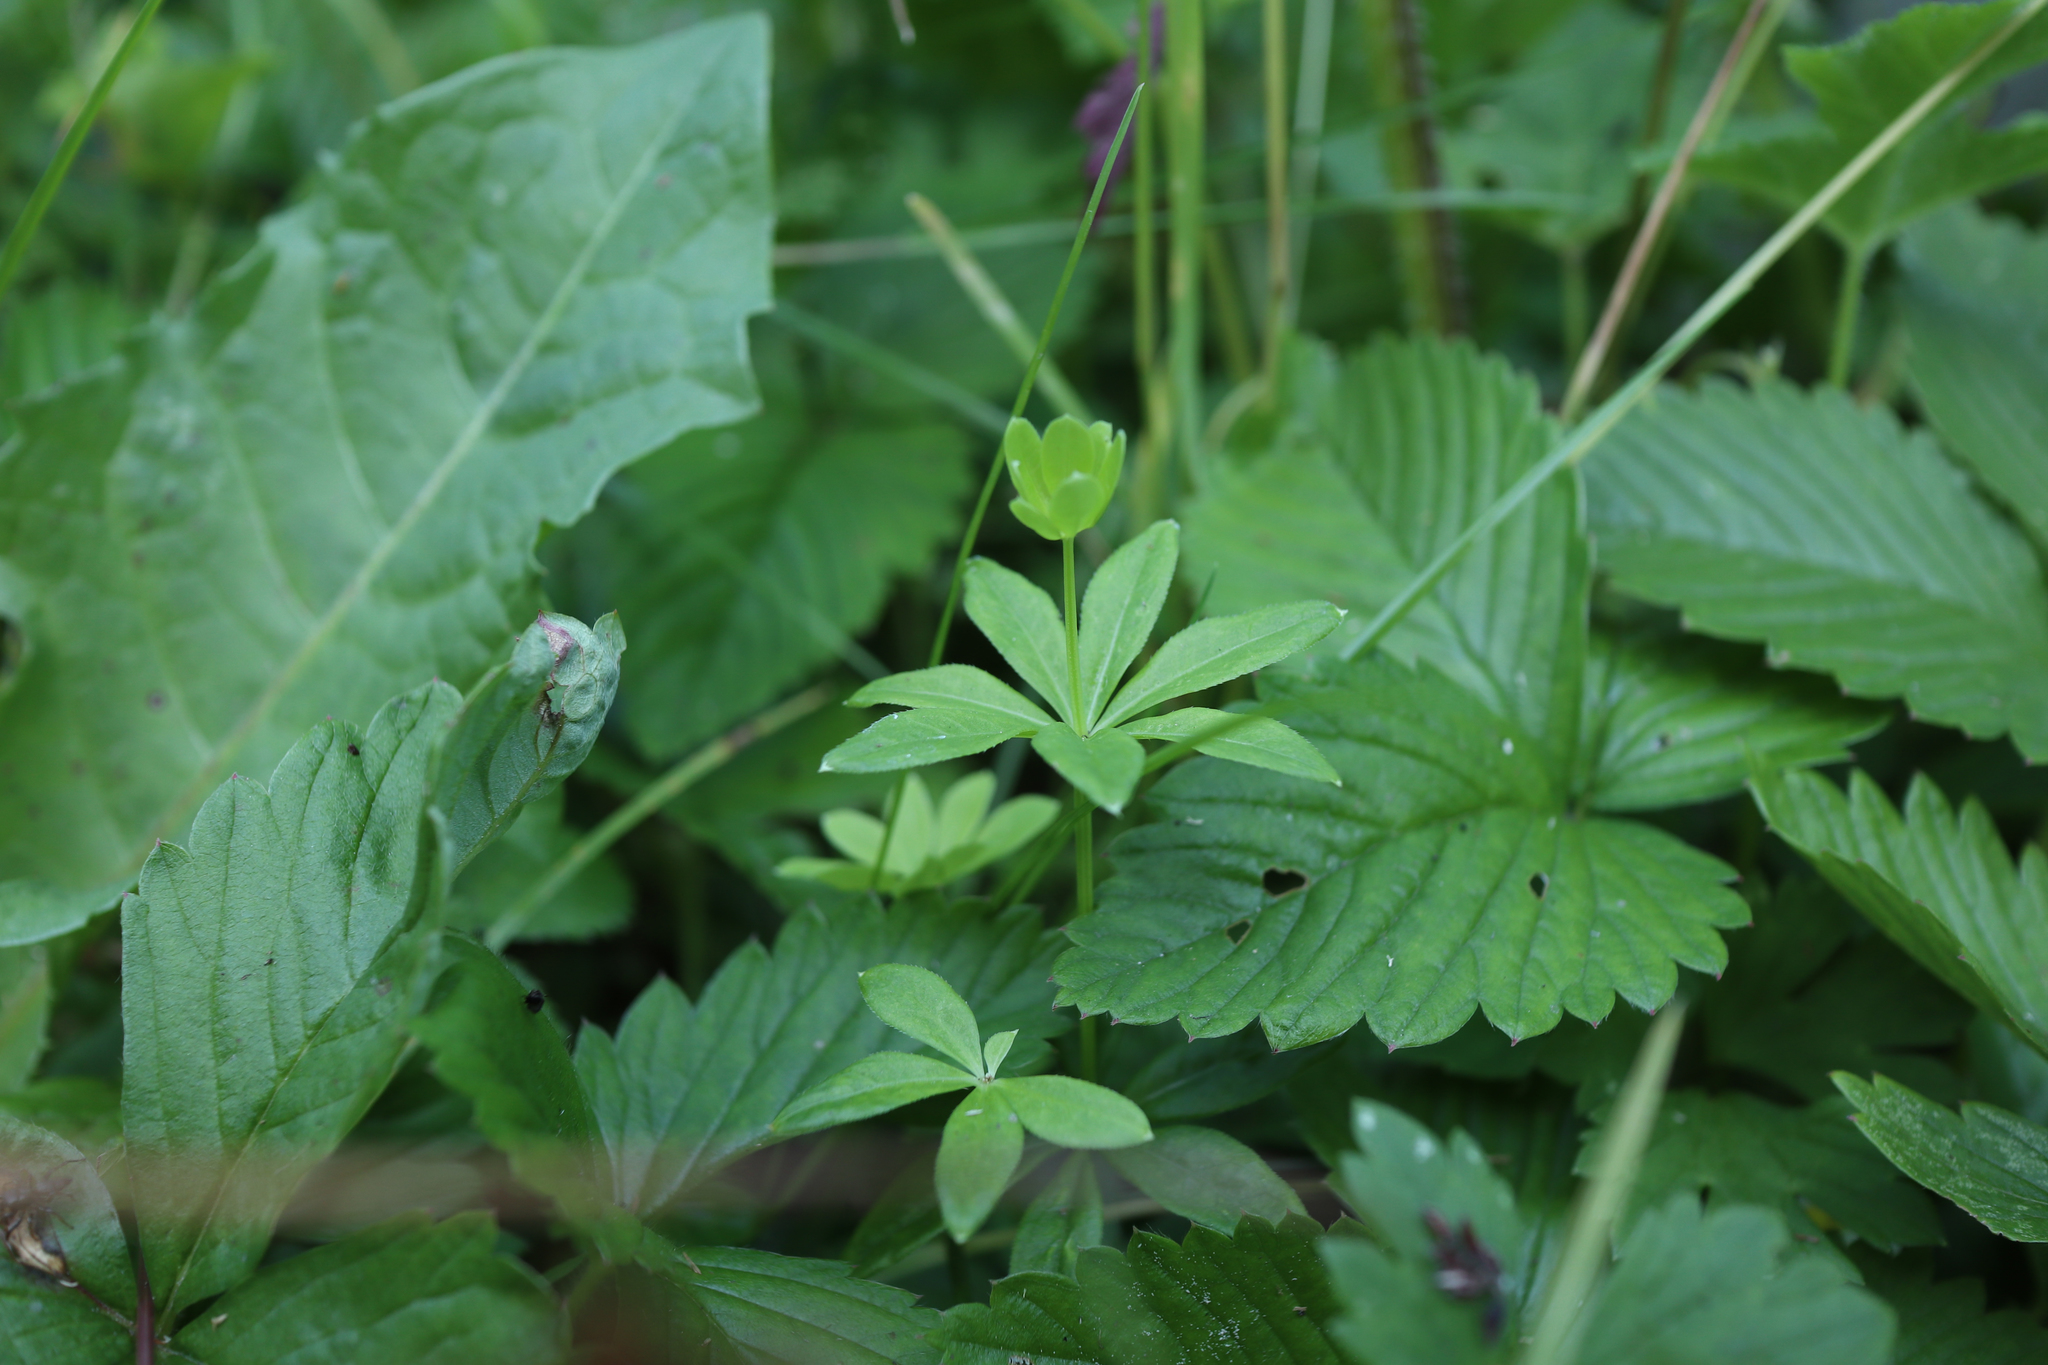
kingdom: Plantae
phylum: Tracheophyta
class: Magnoliopsida
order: Gentianales
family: Rubiaceae
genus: Galium
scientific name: Galium odoratum
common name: Sweet woodruff
